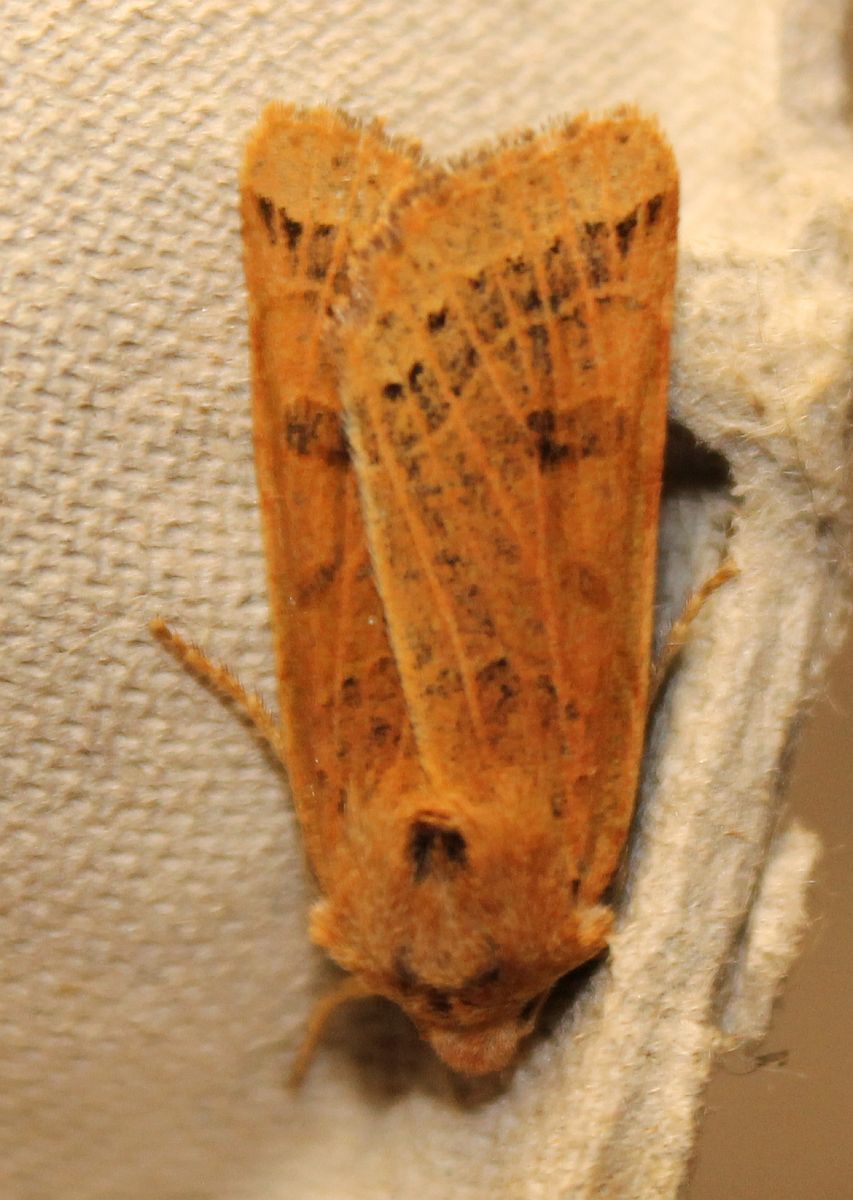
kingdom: Animalia
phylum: Arthropoda
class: Insecta
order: Lepidoptera
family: Noctuidae
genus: Agrochola
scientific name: Agrochola lunosa
